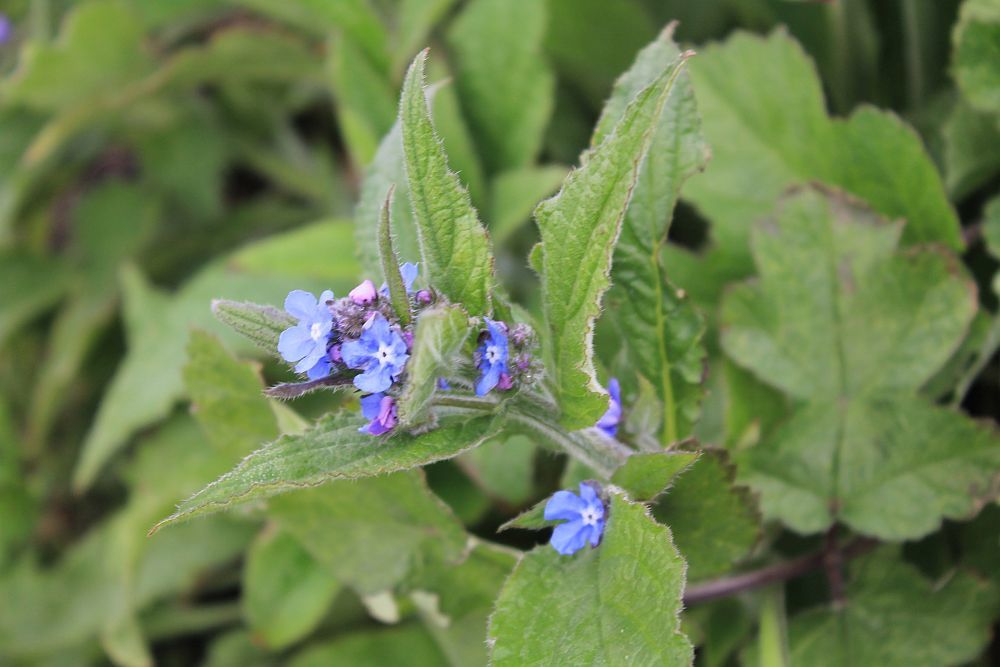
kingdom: Plantae
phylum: Tracheophyta
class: Magnoliopsida
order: Boraginales
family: Boraginaceae
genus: Pentaglottis
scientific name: Pentaglottis sempervirens
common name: Green alkanet
